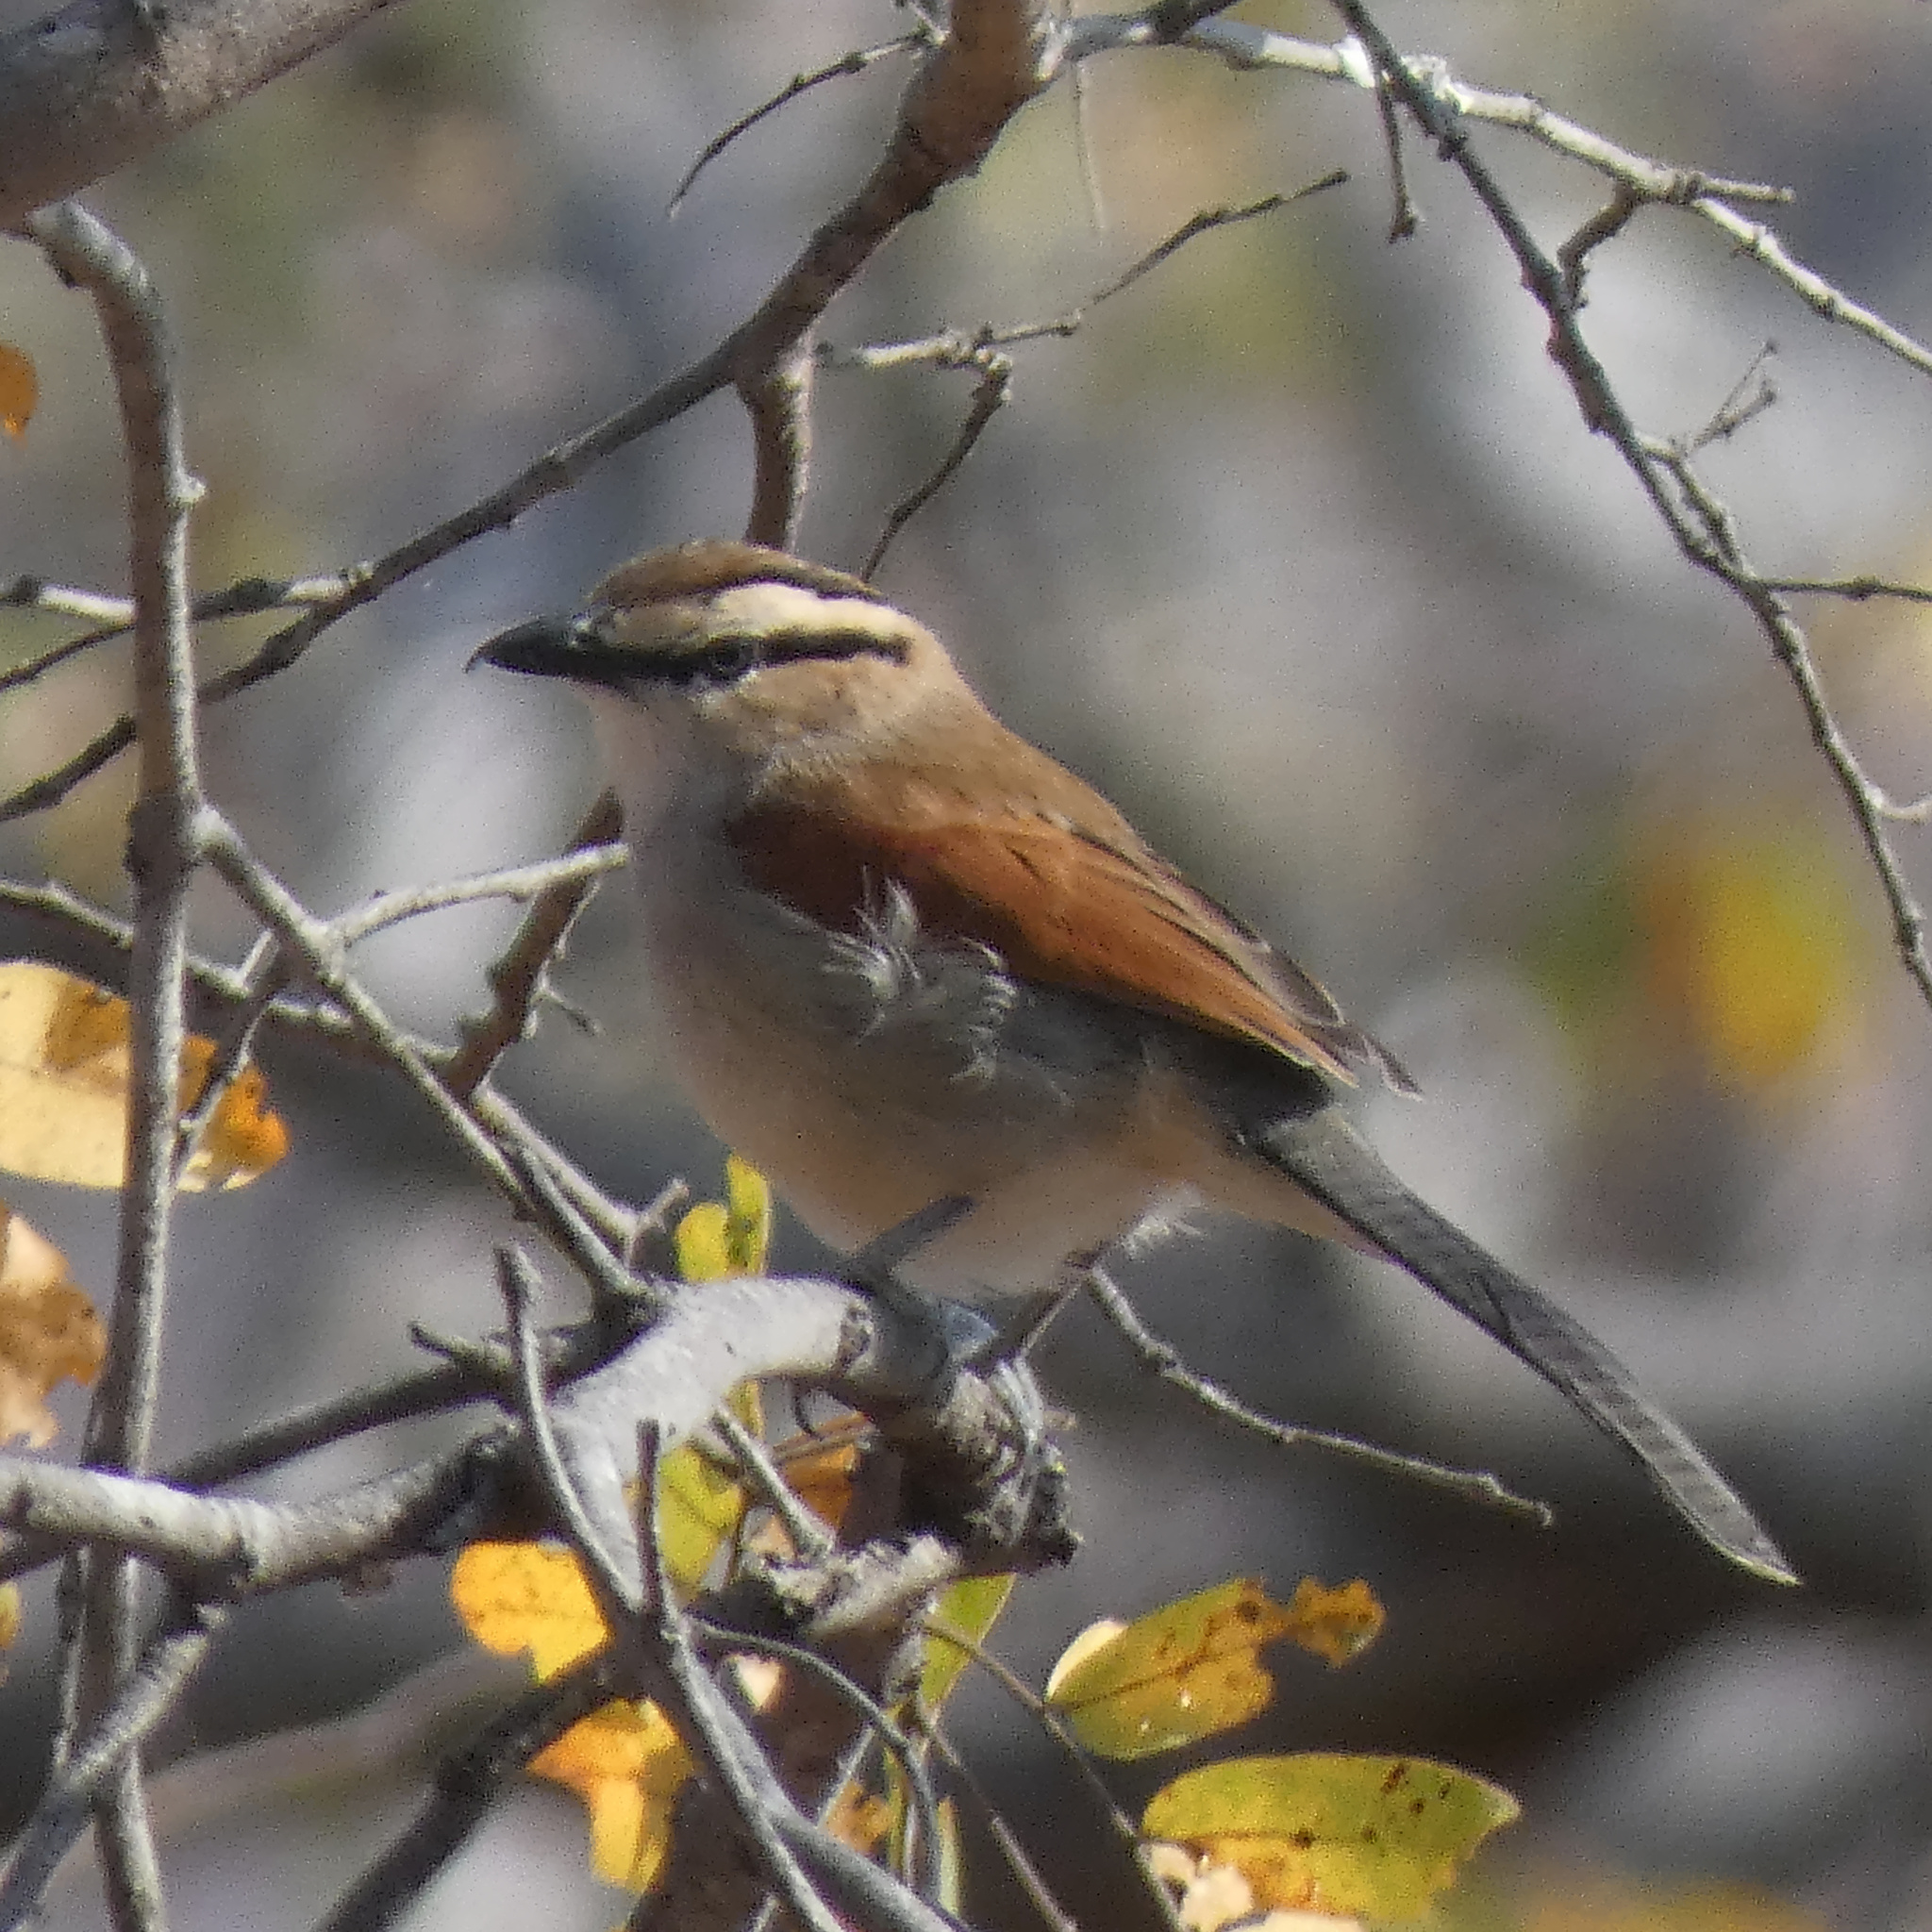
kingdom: Animalia
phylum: Chordata
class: Aves
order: Passeriformes
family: Malaconotidae
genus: Tchagra
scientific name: Tchagra australis
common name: Brown-crowned tchagra
